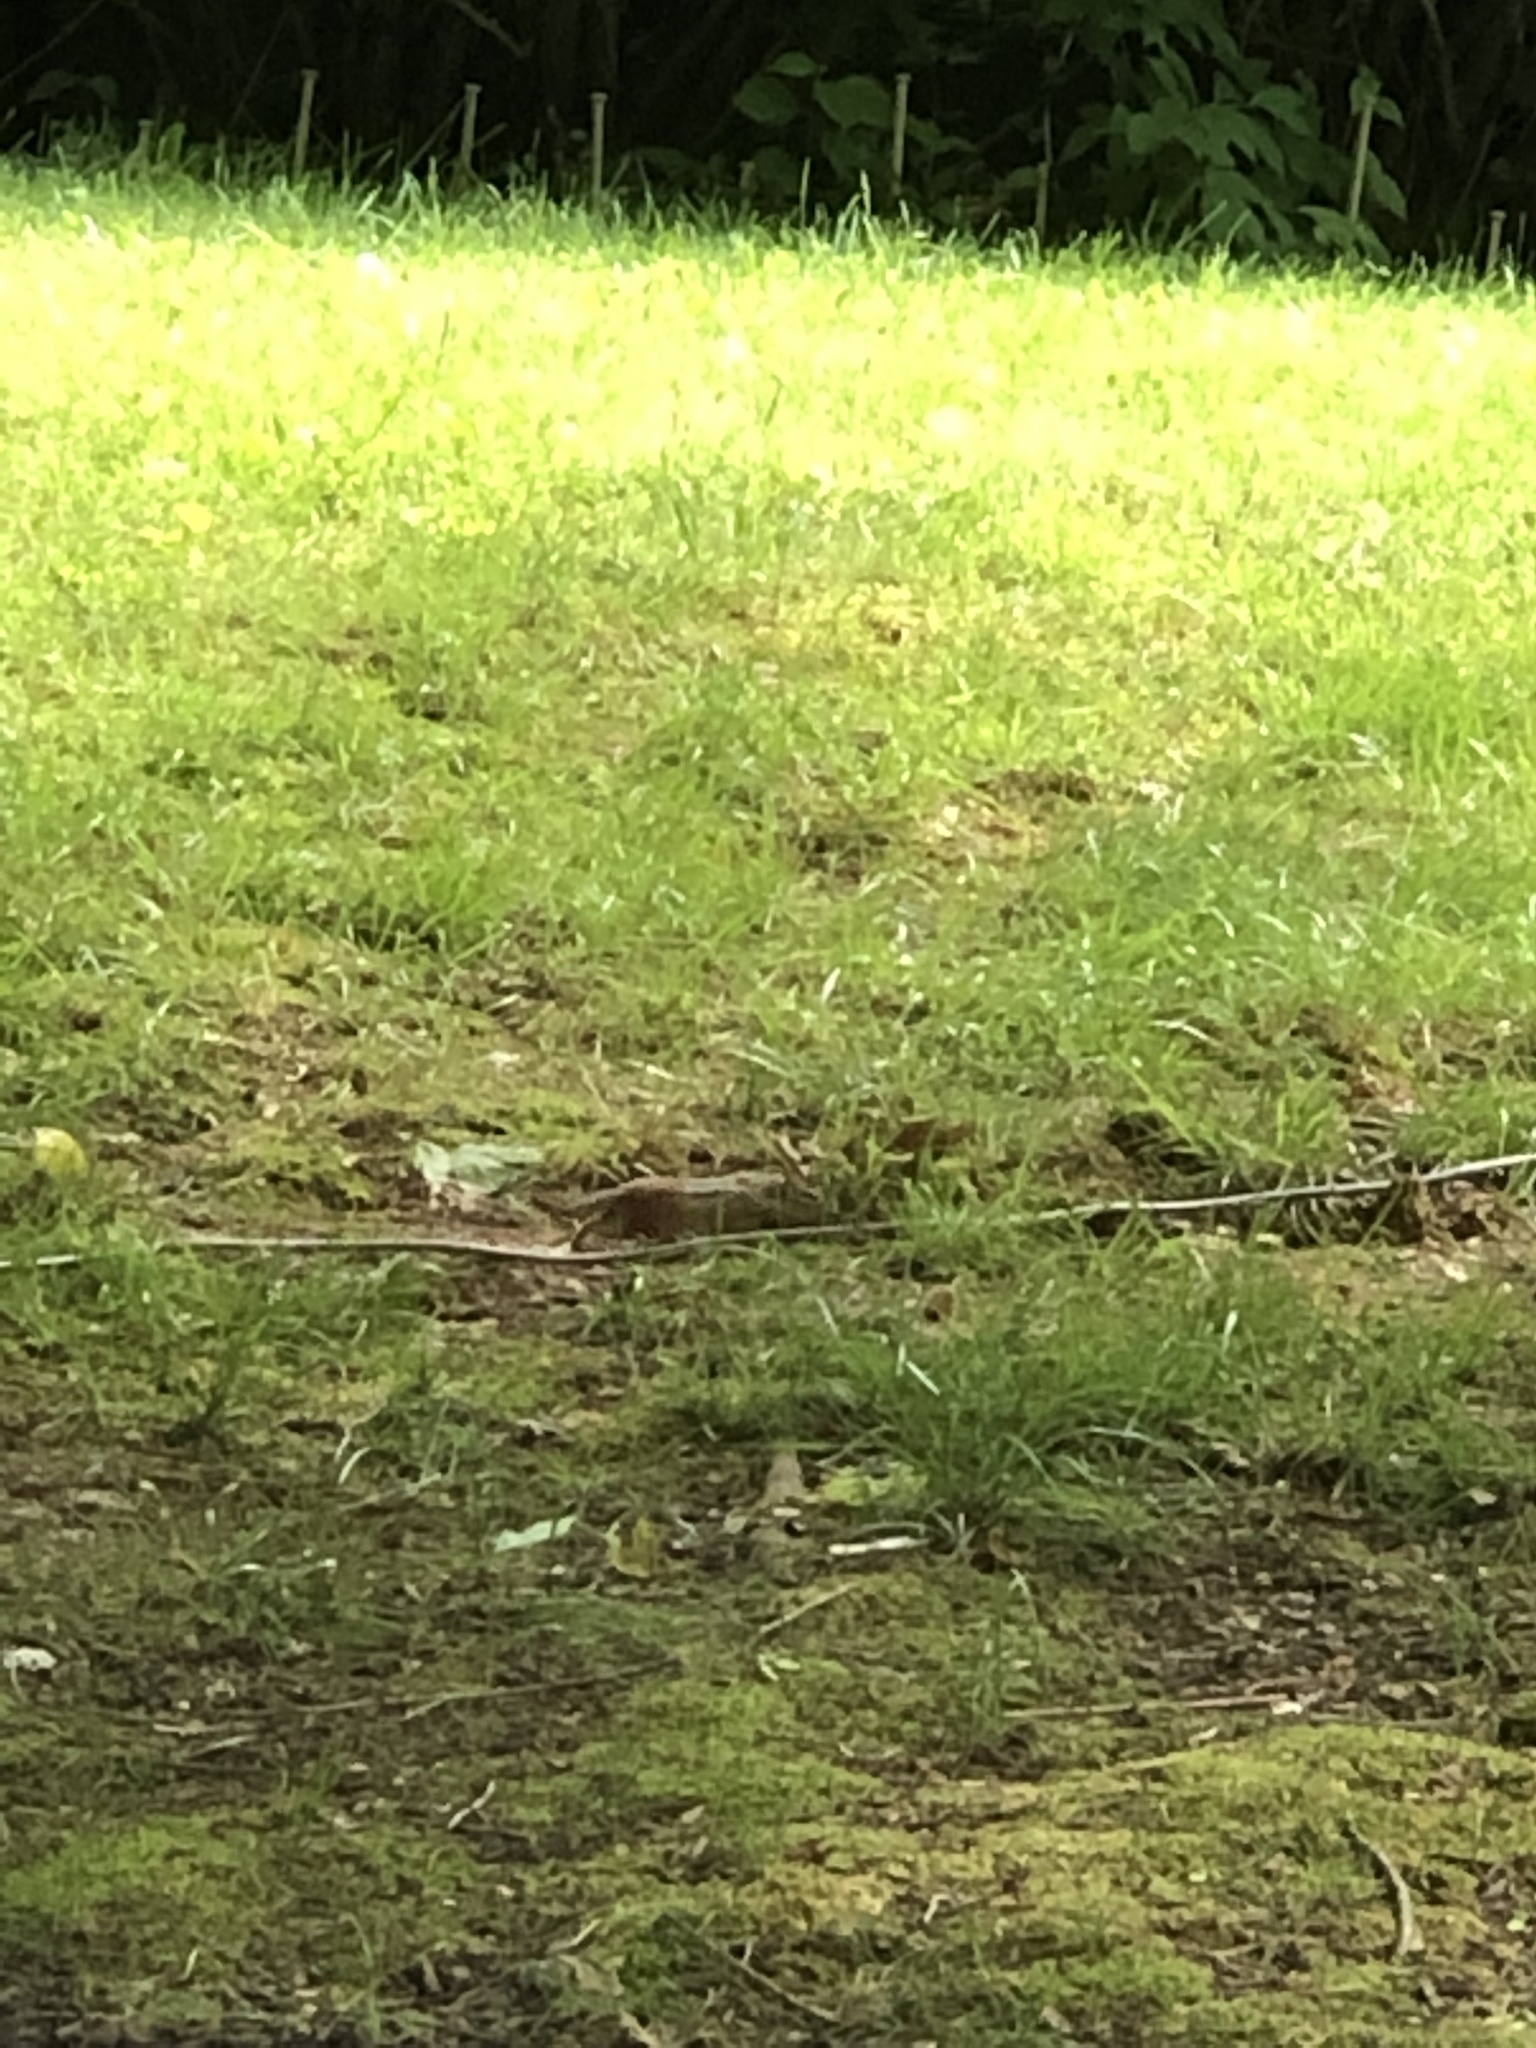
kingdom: Animalia
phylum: Chordata
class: Mammalia
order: Rodentia
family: Sciuridae
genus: Tamias
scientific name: Tamias striatus
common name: Eastern chipmunk
